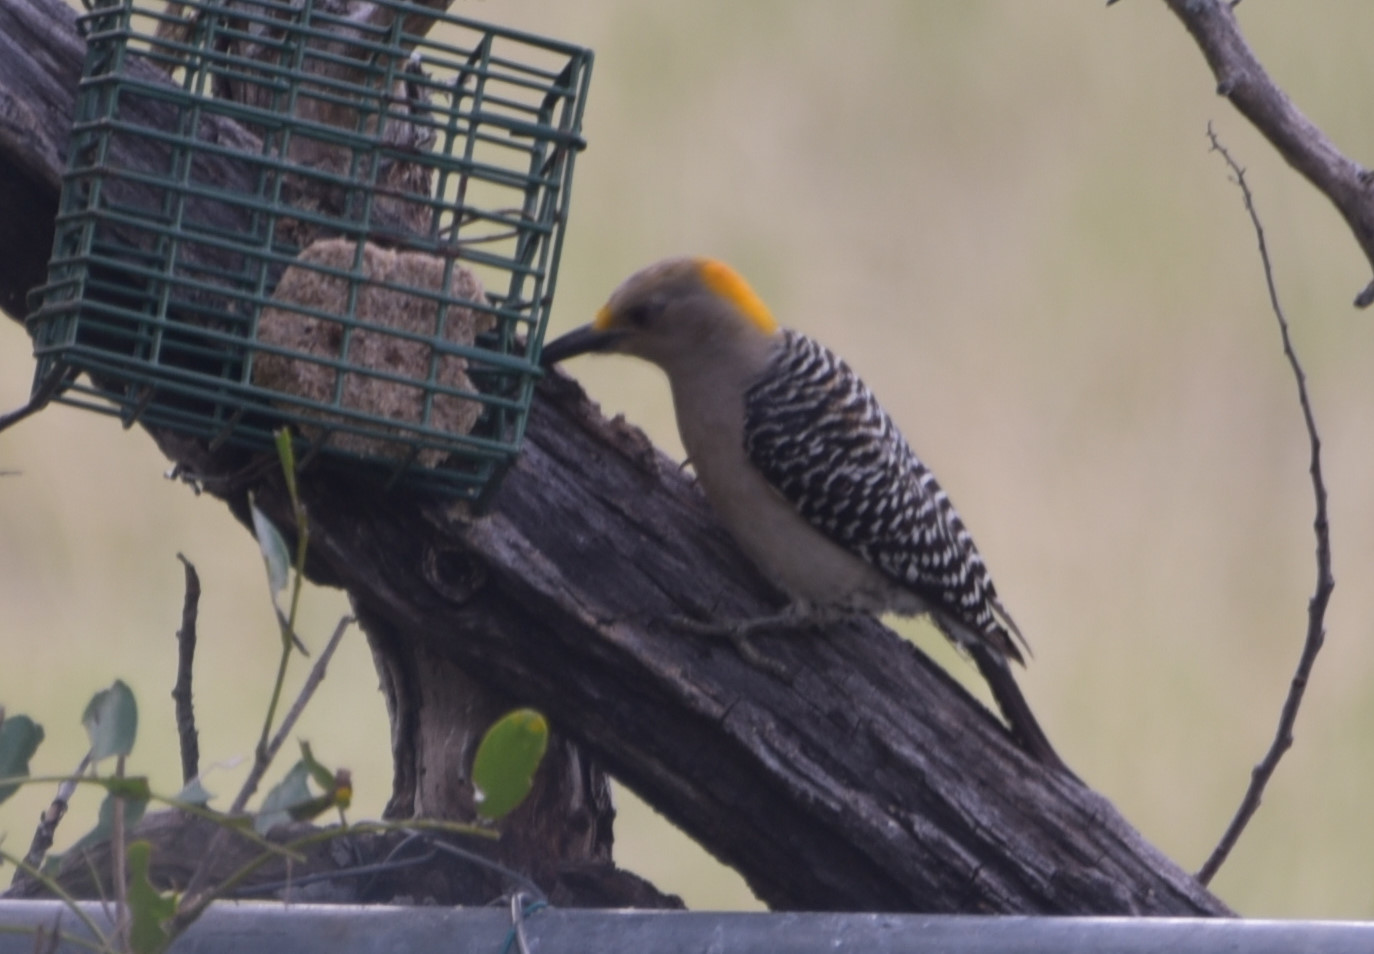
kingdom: Animalia
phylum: Chordata
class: Aves
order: Piciformes
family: Picidae
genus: Melanerpes
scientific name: Melanerpes aurifrons
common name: Golden-fronted woodpecker
